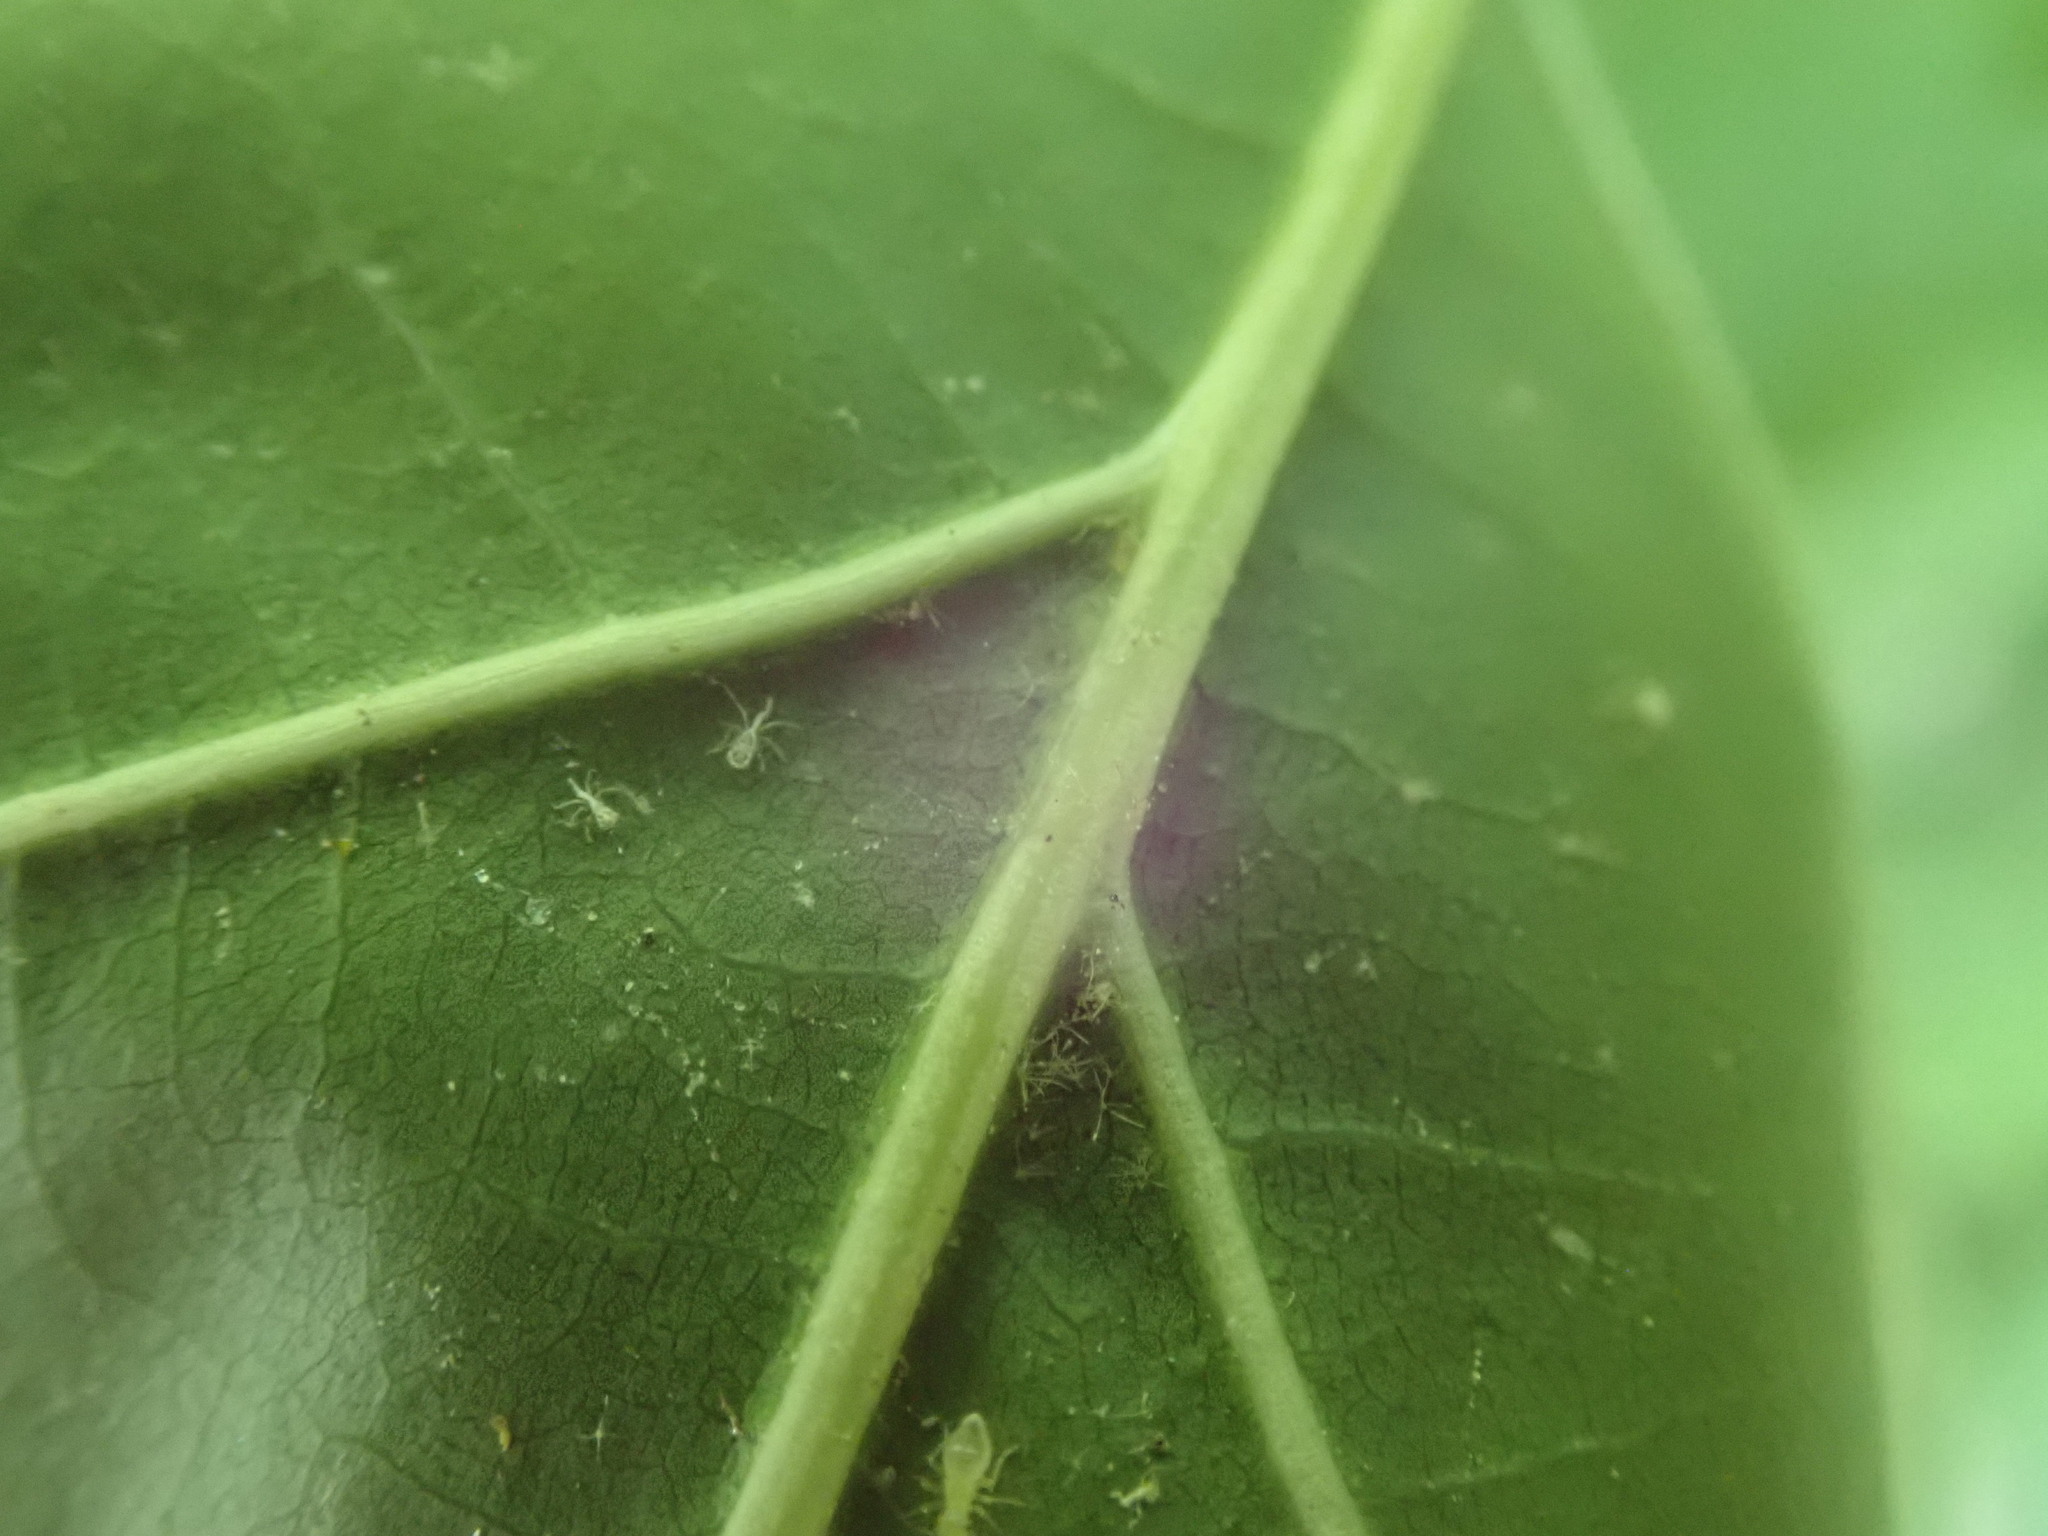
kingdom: Plantae
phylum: Tracheophyta
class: Magnoliopsida
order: Fagales
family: Fagaceae
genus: Quercus
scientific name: Quercus rubra
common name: Red oak
